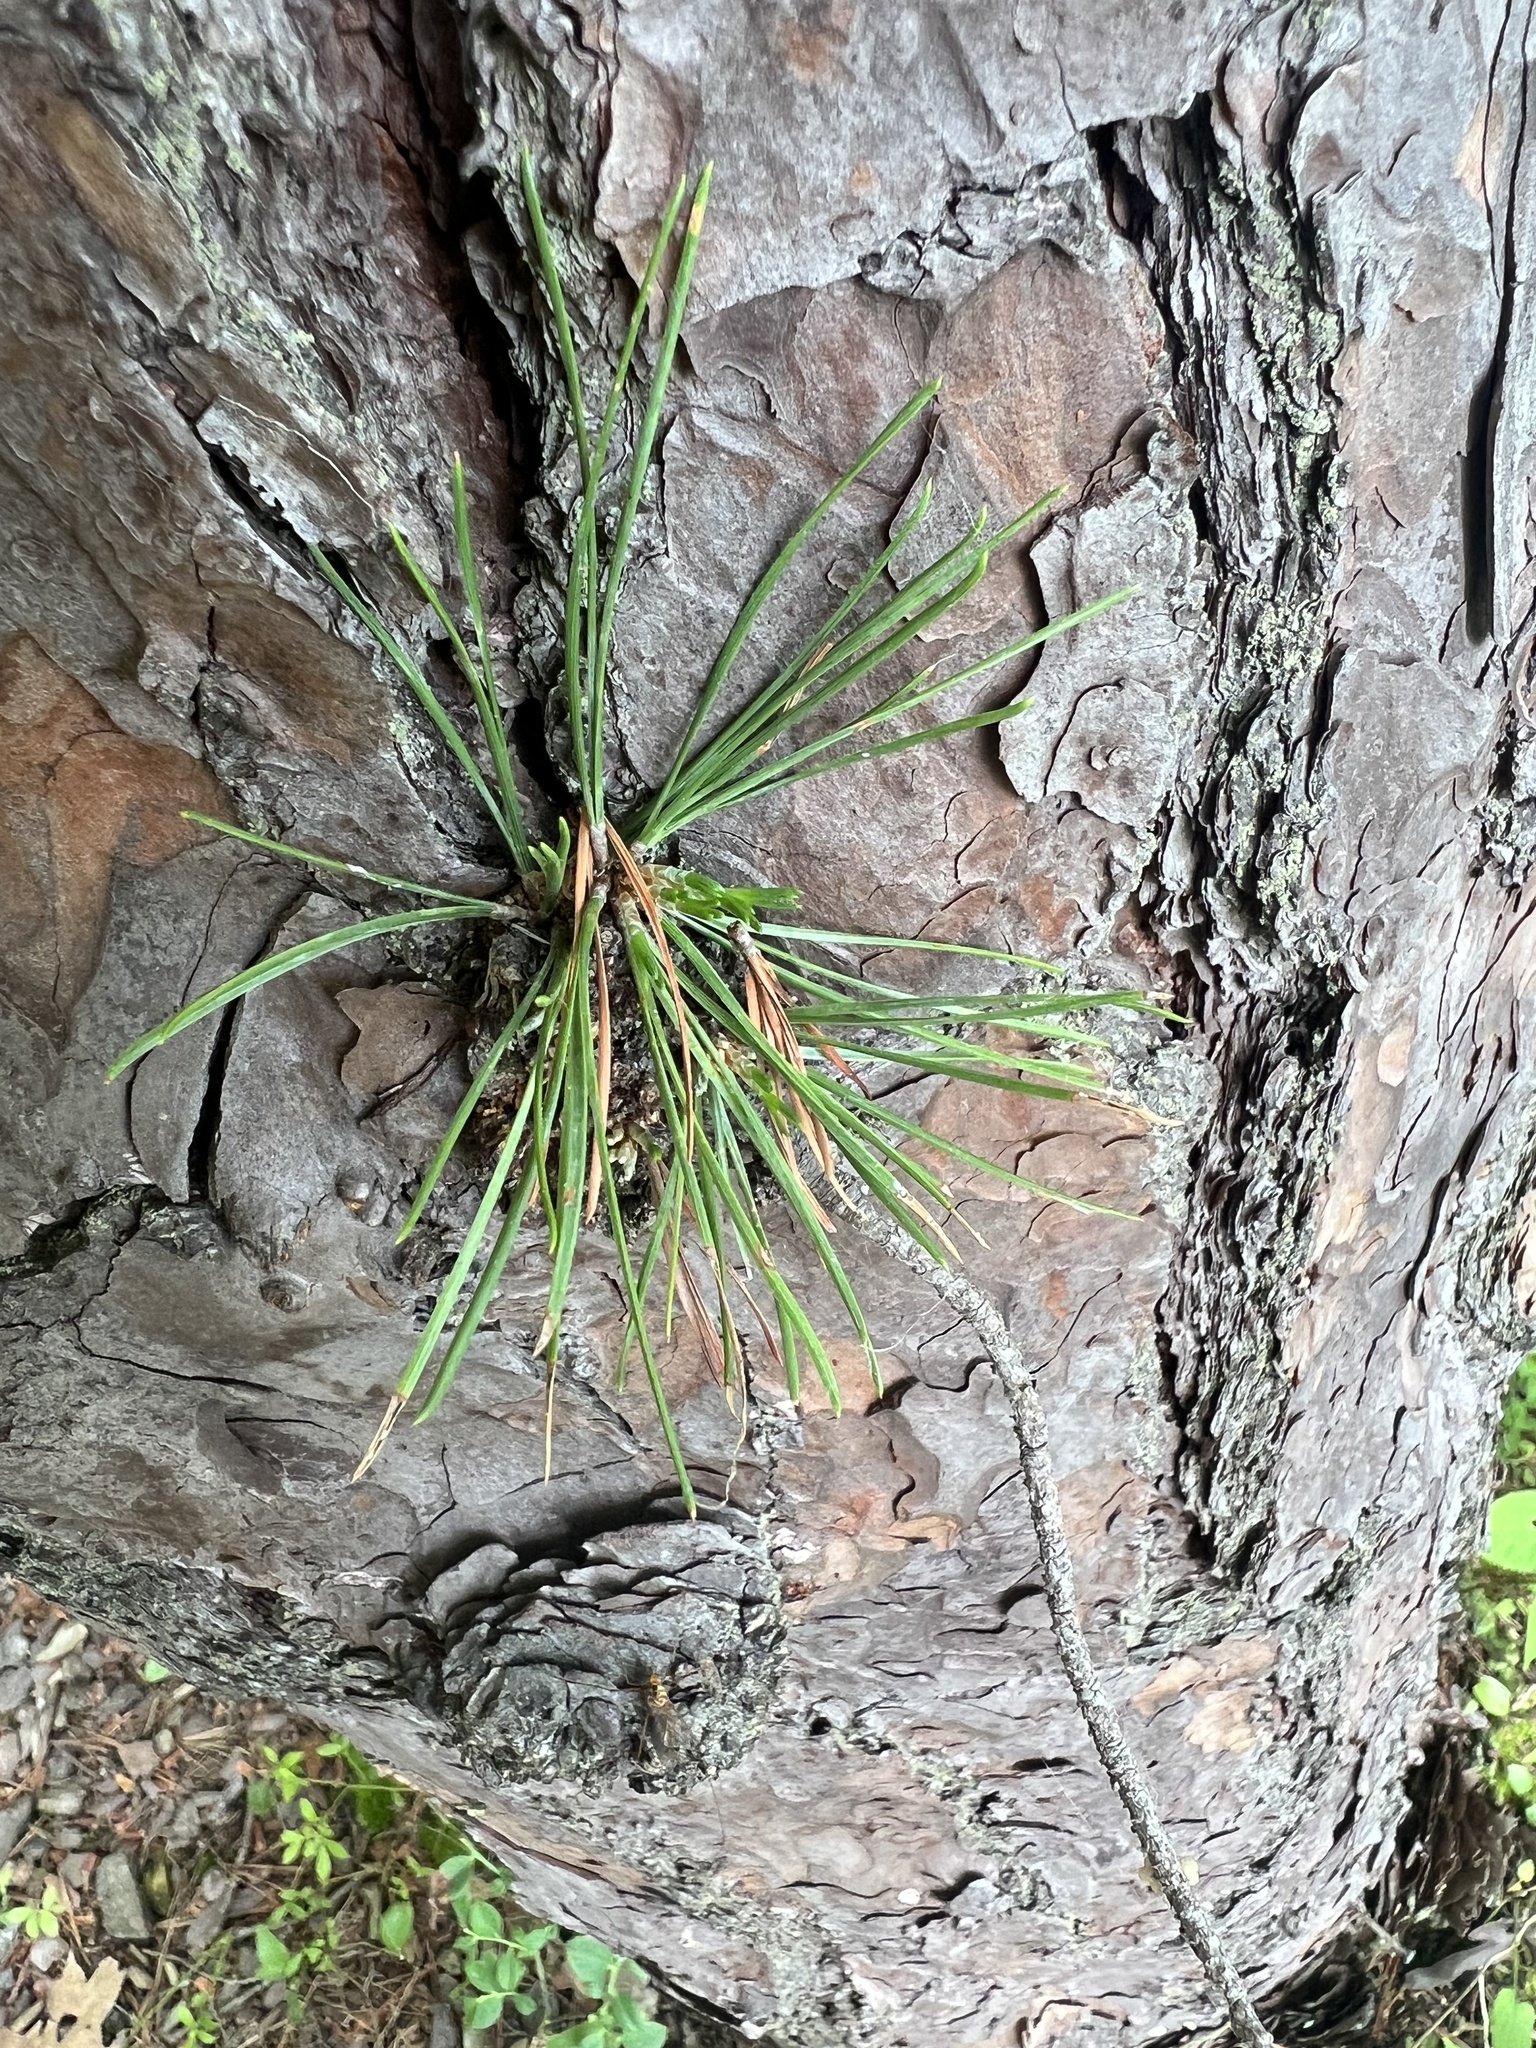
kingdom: Plantae
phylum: Tracheophyta
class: Pinopsida
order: Pinales
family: Pinaceae
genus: Pinus
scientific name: Pinus rigida
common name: Pitch pine
